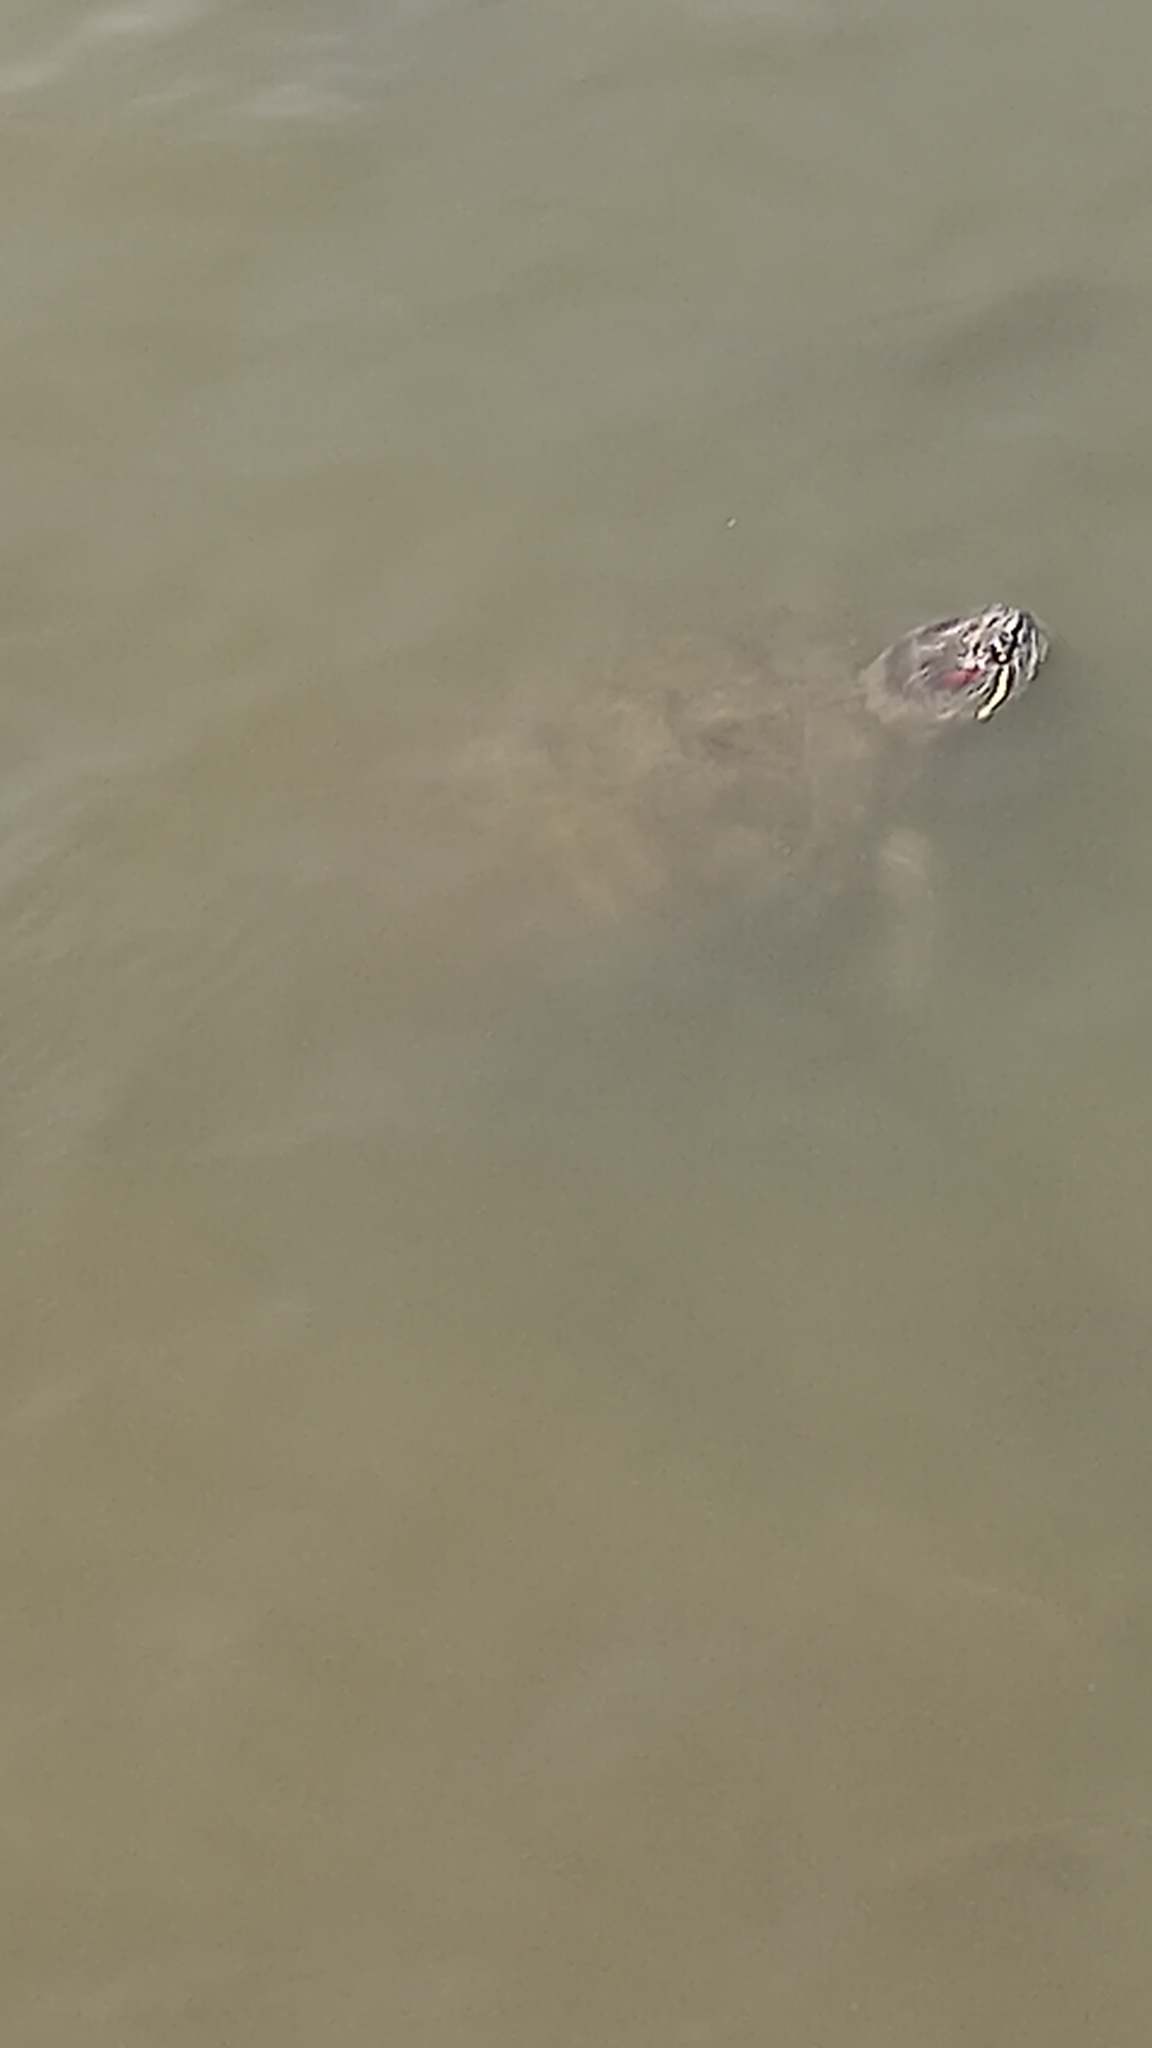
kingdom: Animalia
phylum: Chordata
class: Testudines
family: Emydidae
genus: Trachemys
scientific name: Trachemys scripta
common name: Slider
